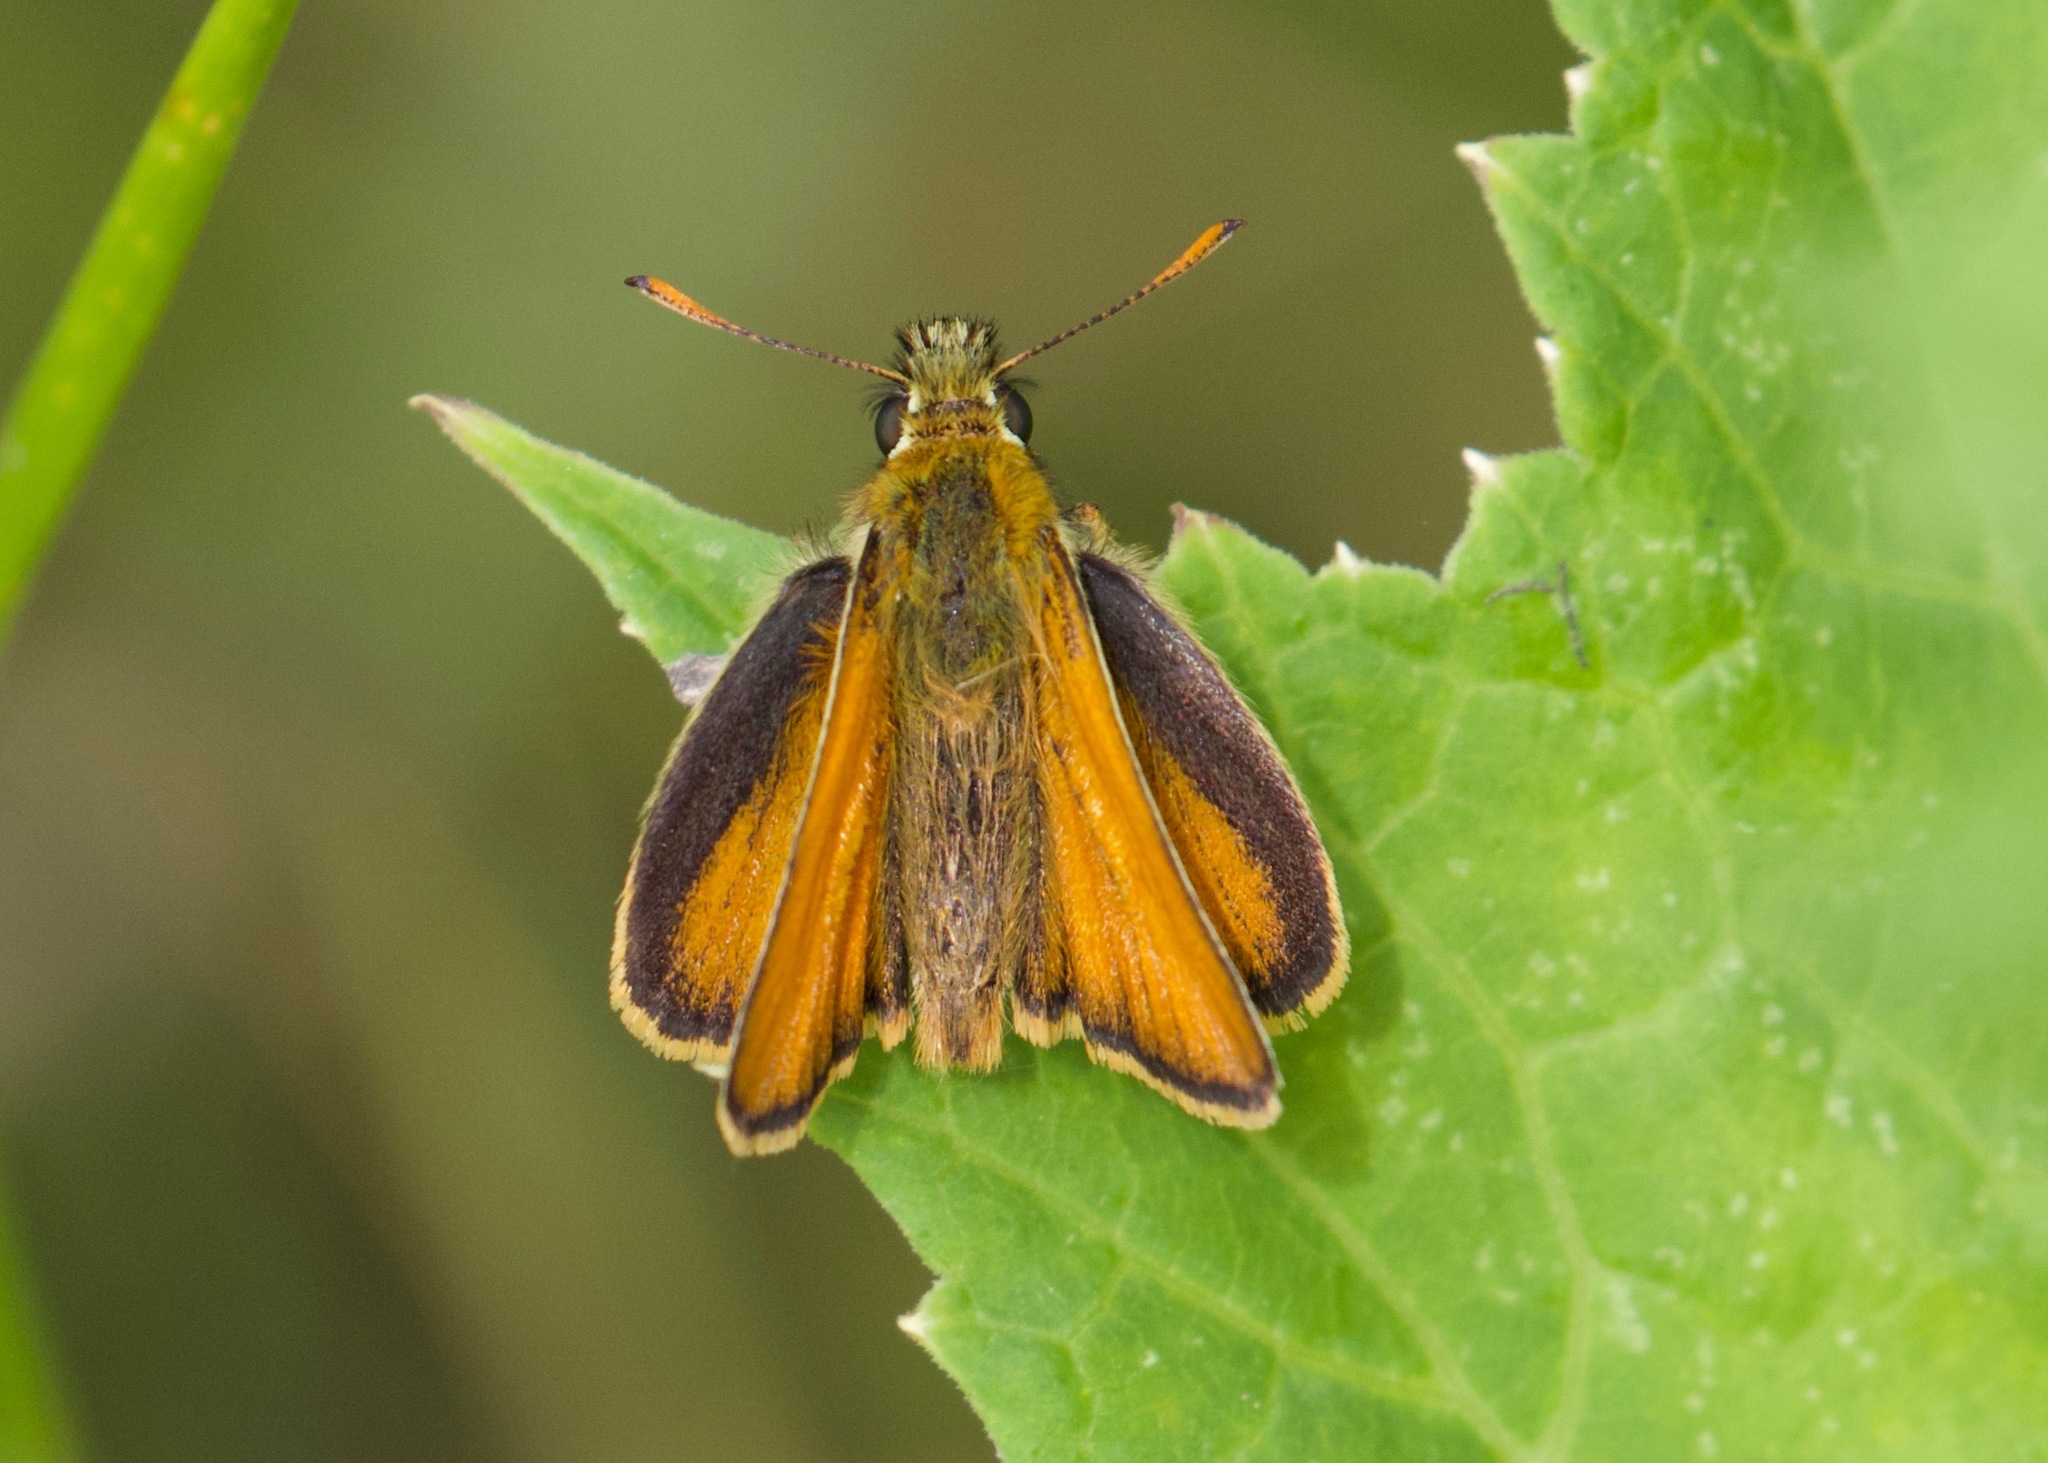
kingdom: Animalia
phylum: Arthropoda
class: Insecta
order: Lepidoptera
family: Hesperiidae
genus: Thymelicus
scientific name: Thymelicus sylvestris
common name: Small skipper
